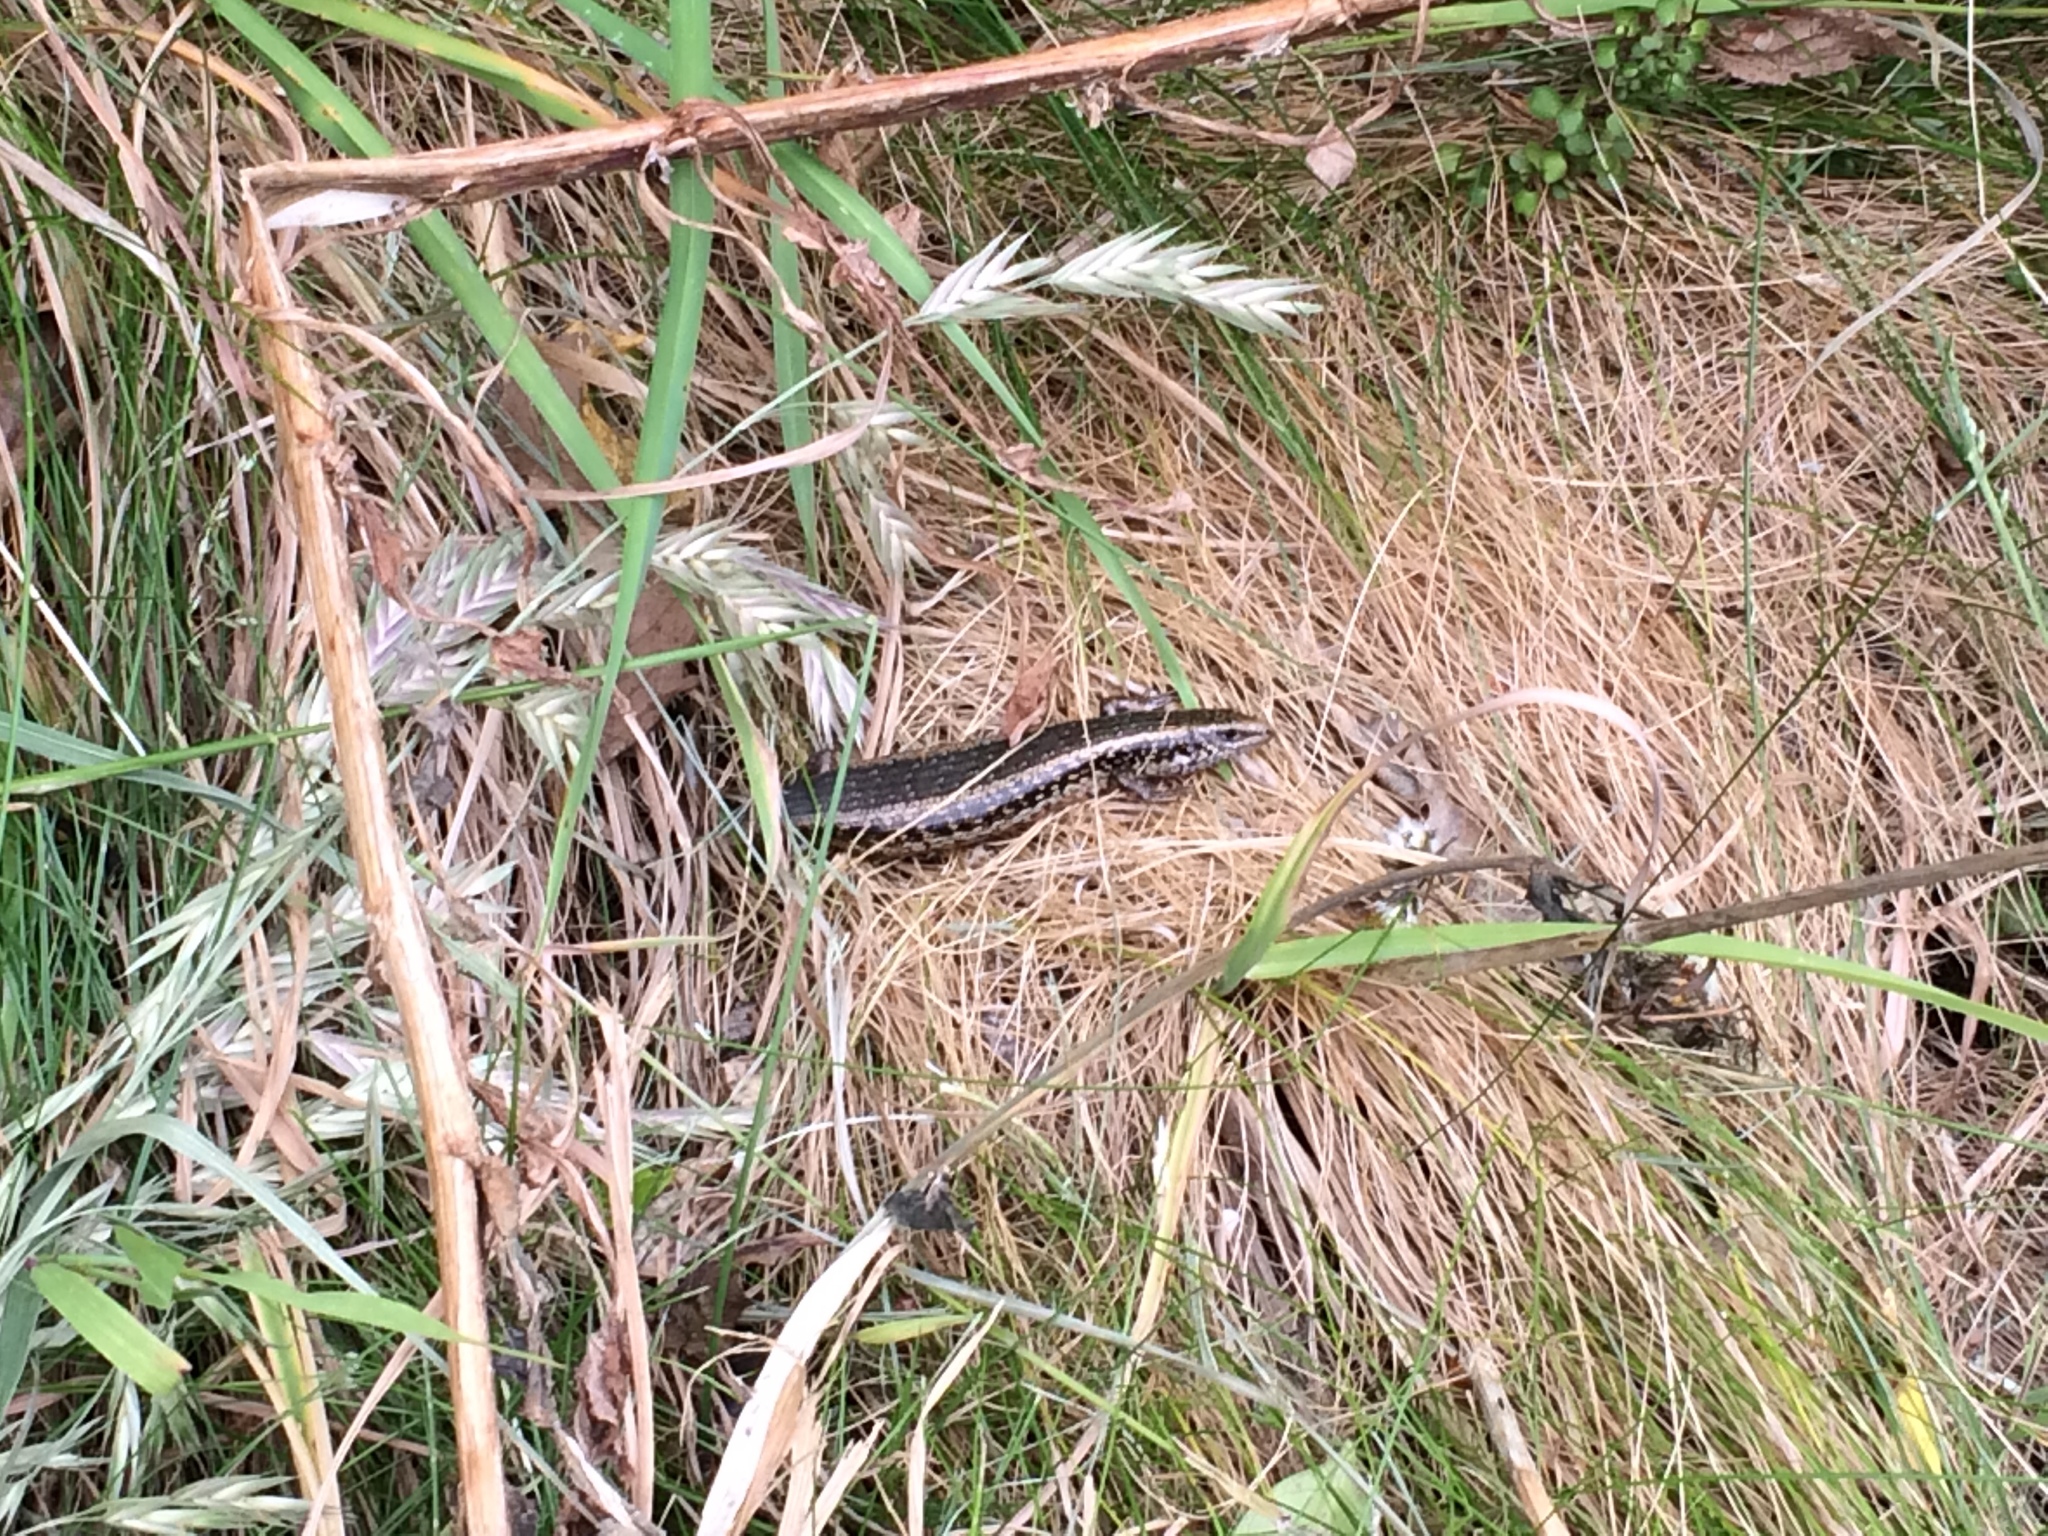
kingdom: Animalia
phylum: Chordata
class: Squamata
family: Scincidae
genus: Oligosoma
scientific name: Oligosoma kokowai
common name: Northern spotted skink
